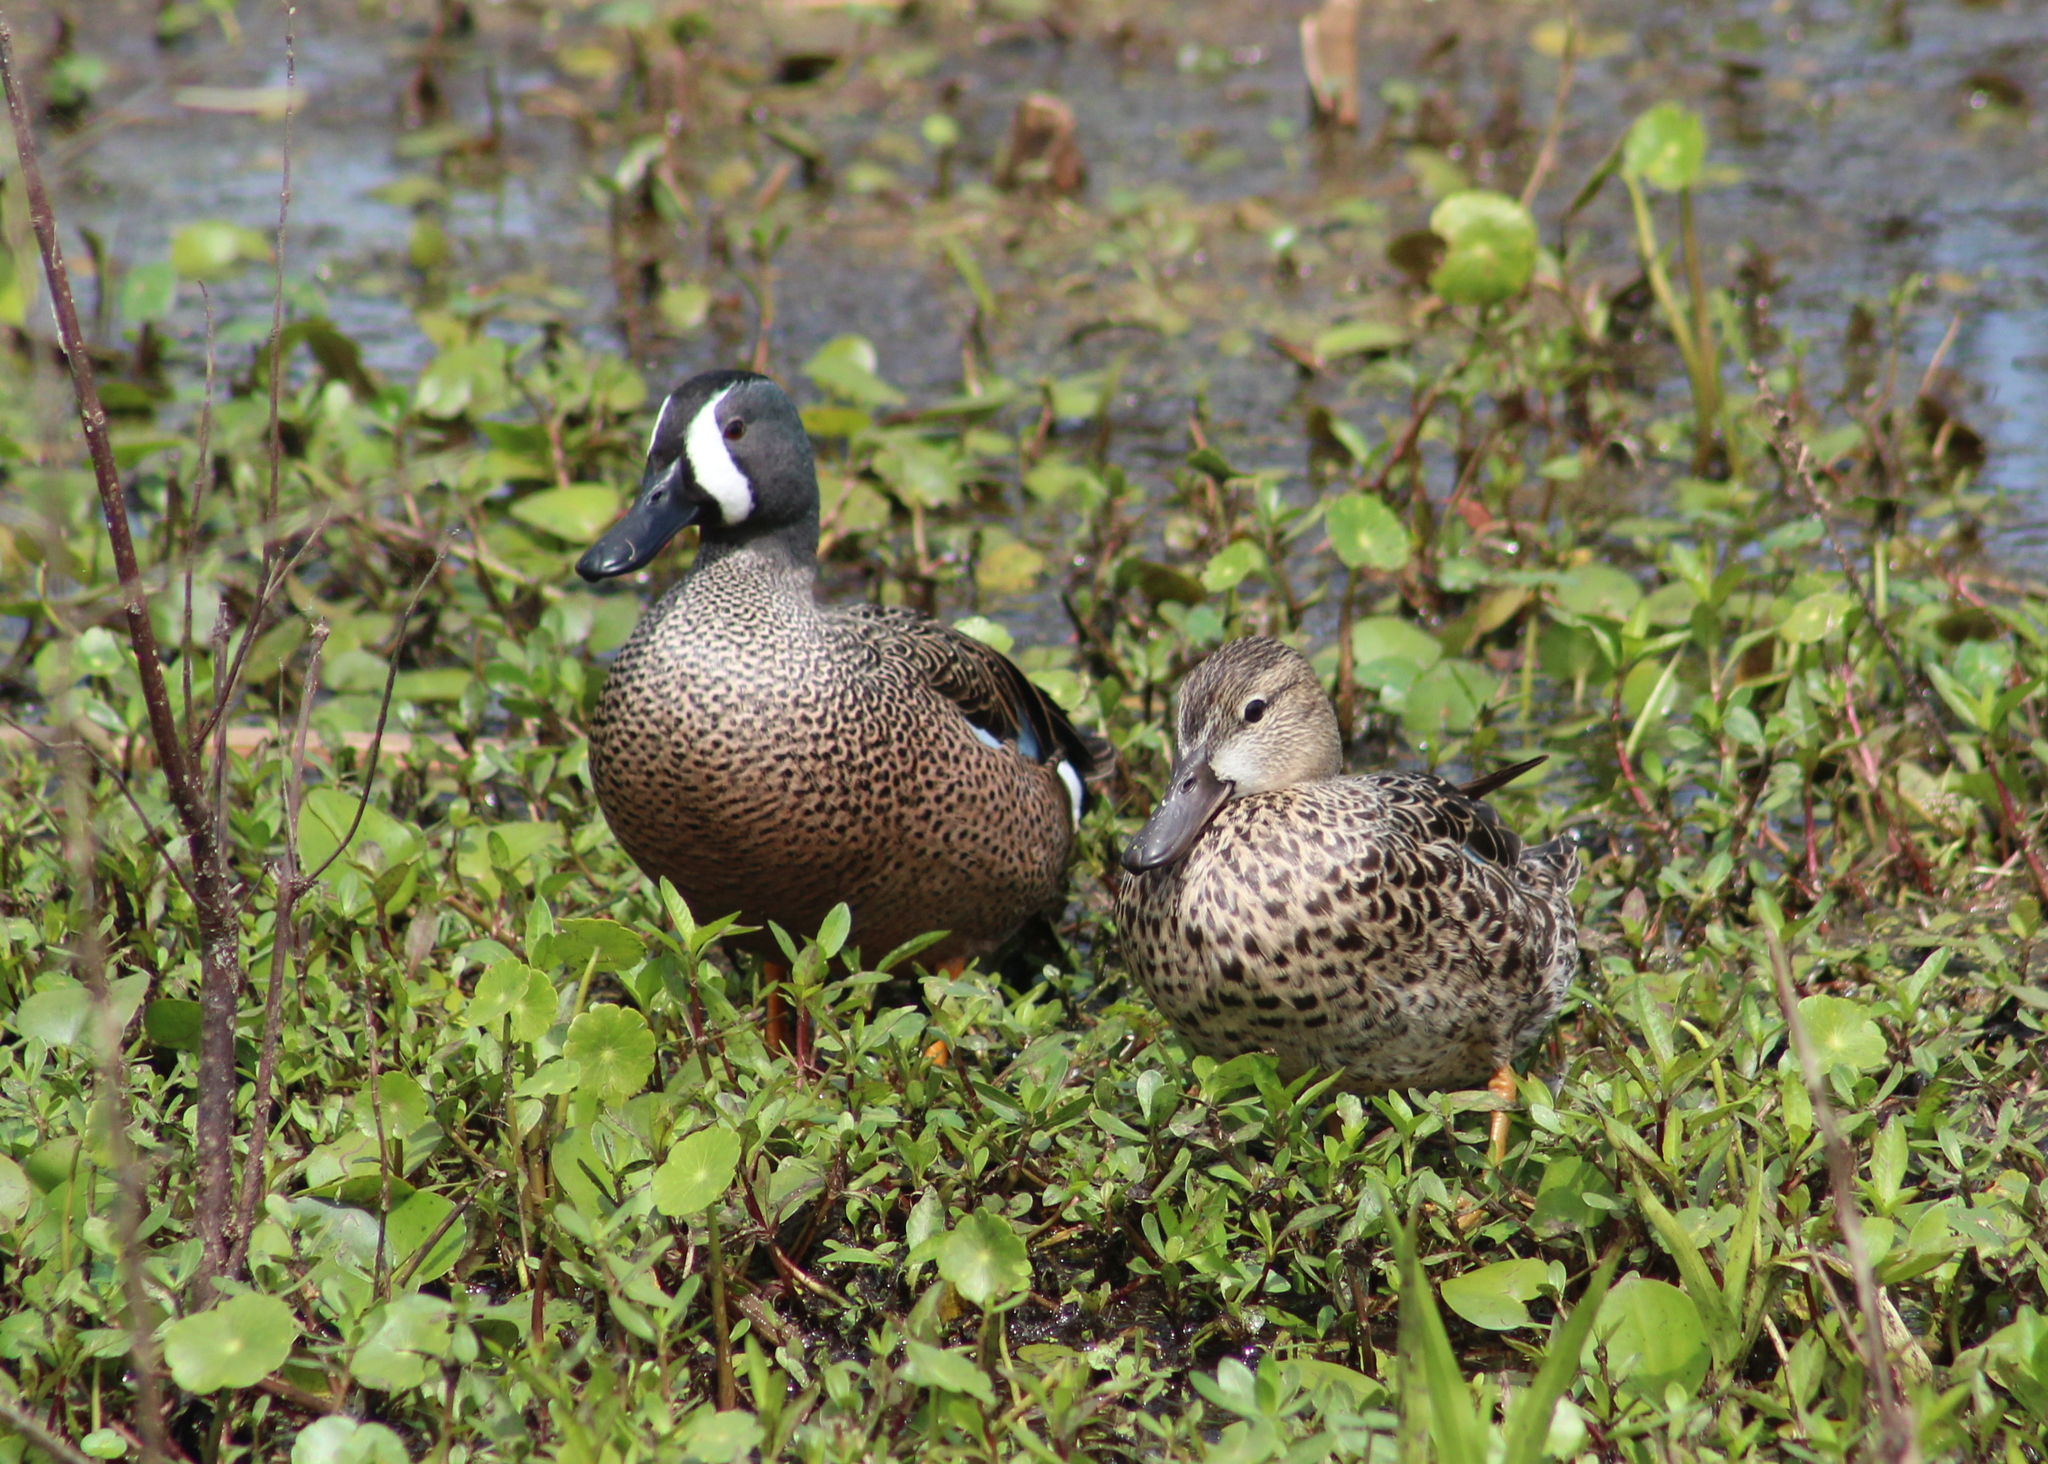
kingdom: Animalia
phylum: Chordata
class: Aves
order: Anseriformes
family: Anatidae
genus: Spatula
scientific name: Spatula discors
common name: Blue-winged teal
